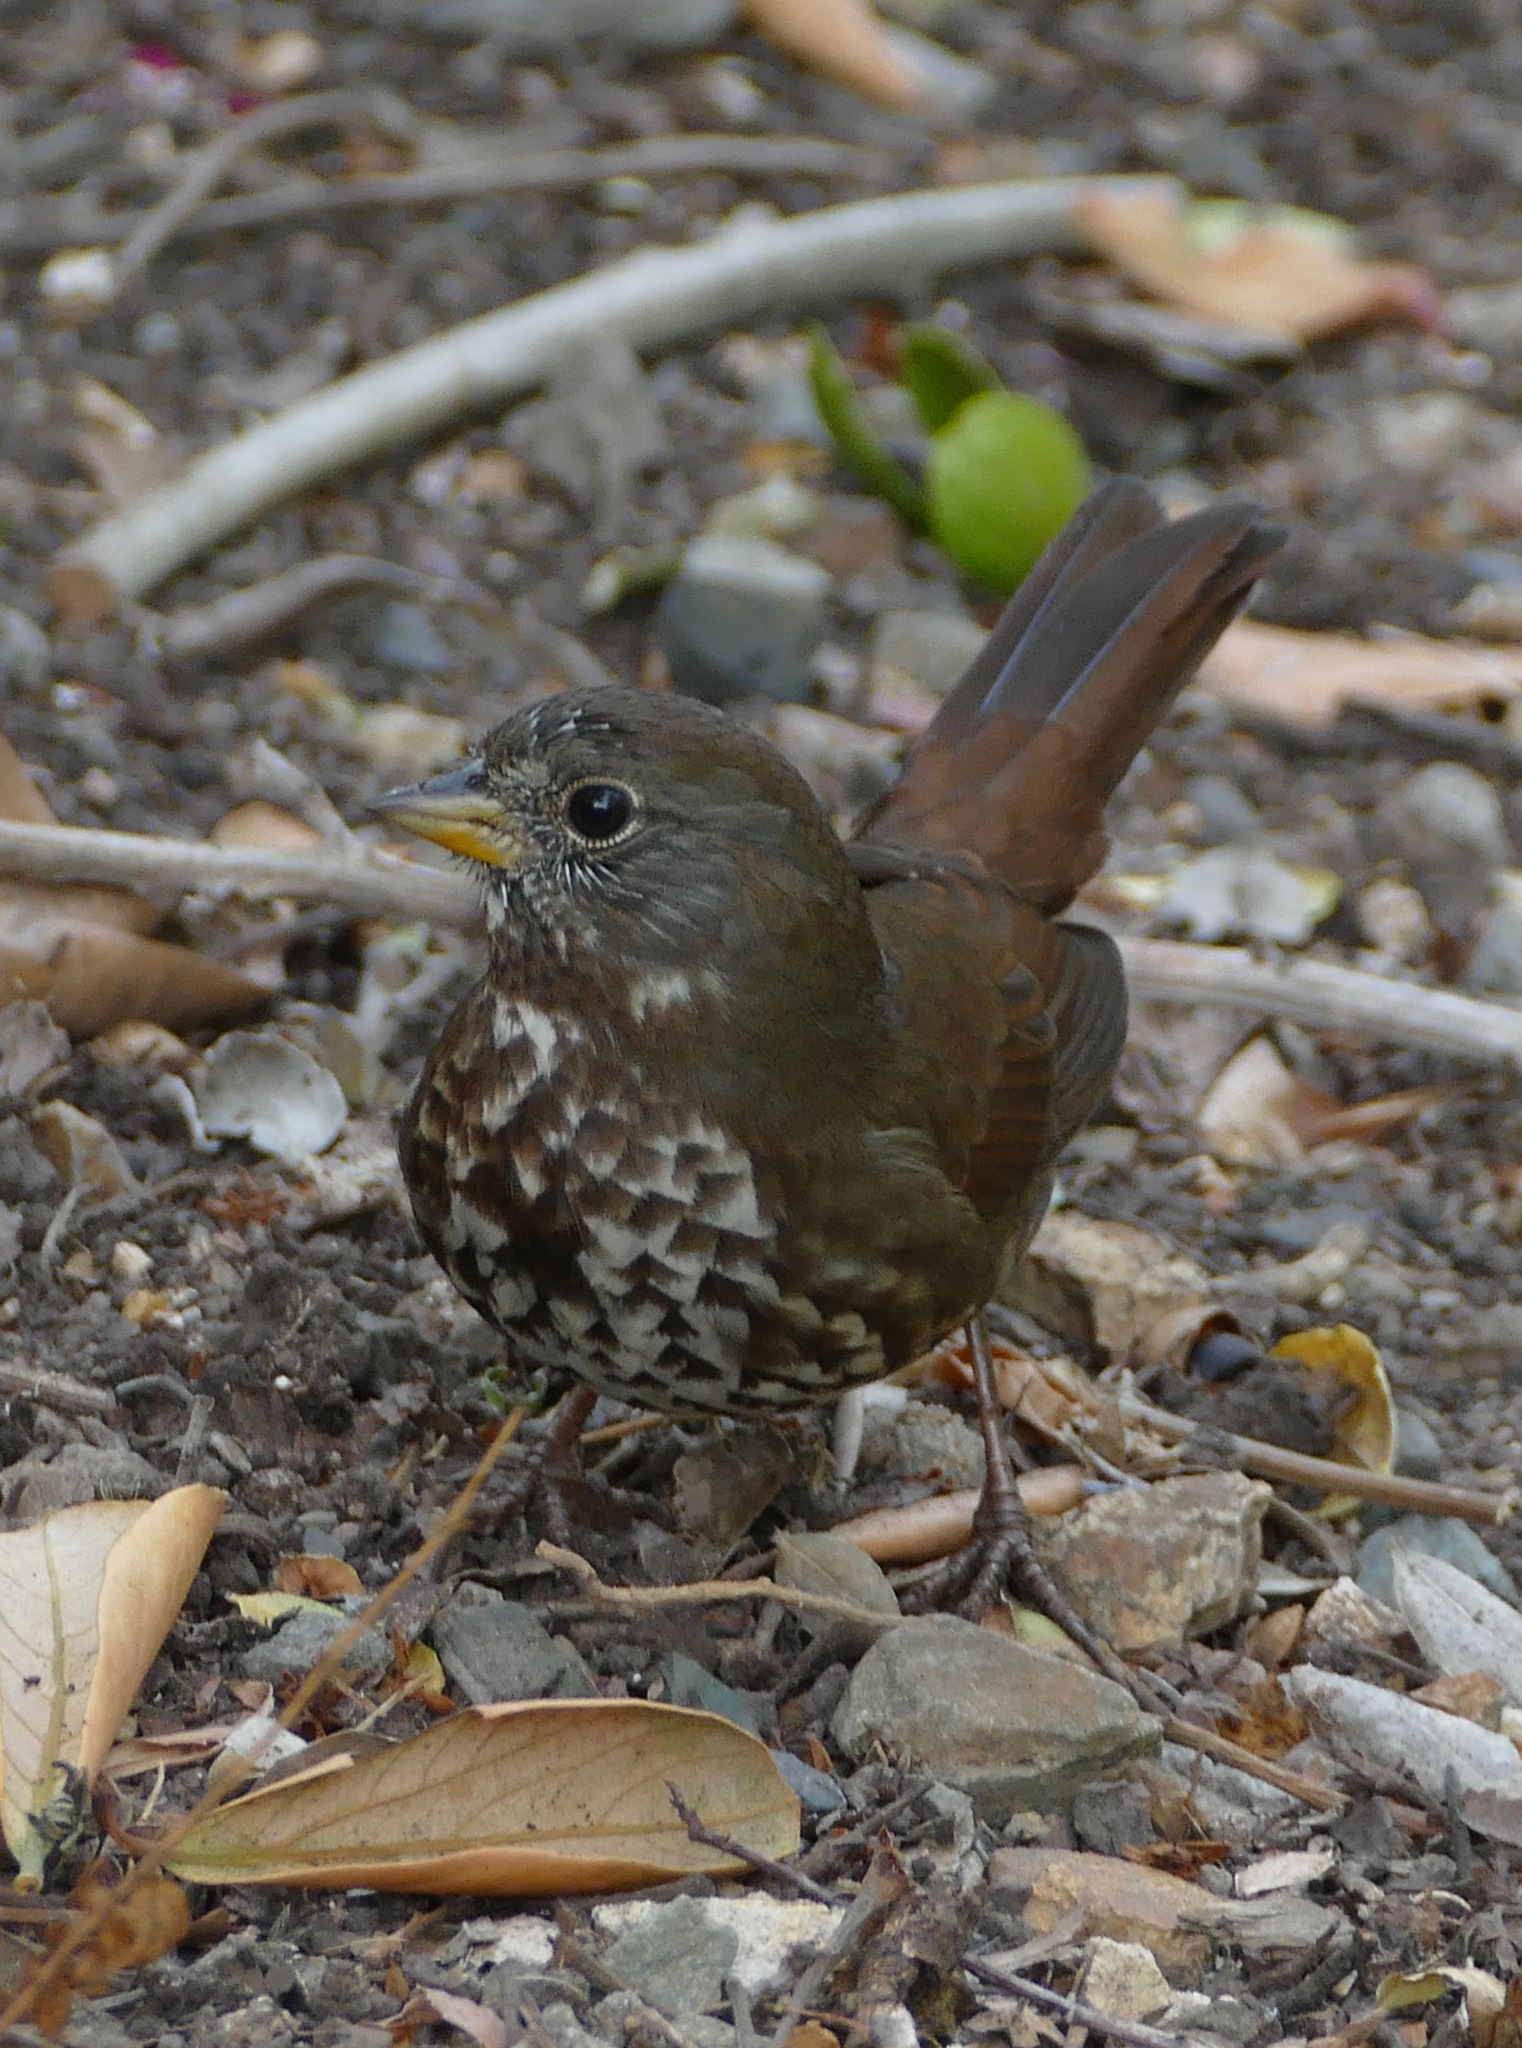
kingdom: Animalia
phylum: Chordata
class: Aves
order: Passeriformes
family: Passerellidae
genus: Passerella
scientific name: Passerella iliaca
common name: Fox sparrow
